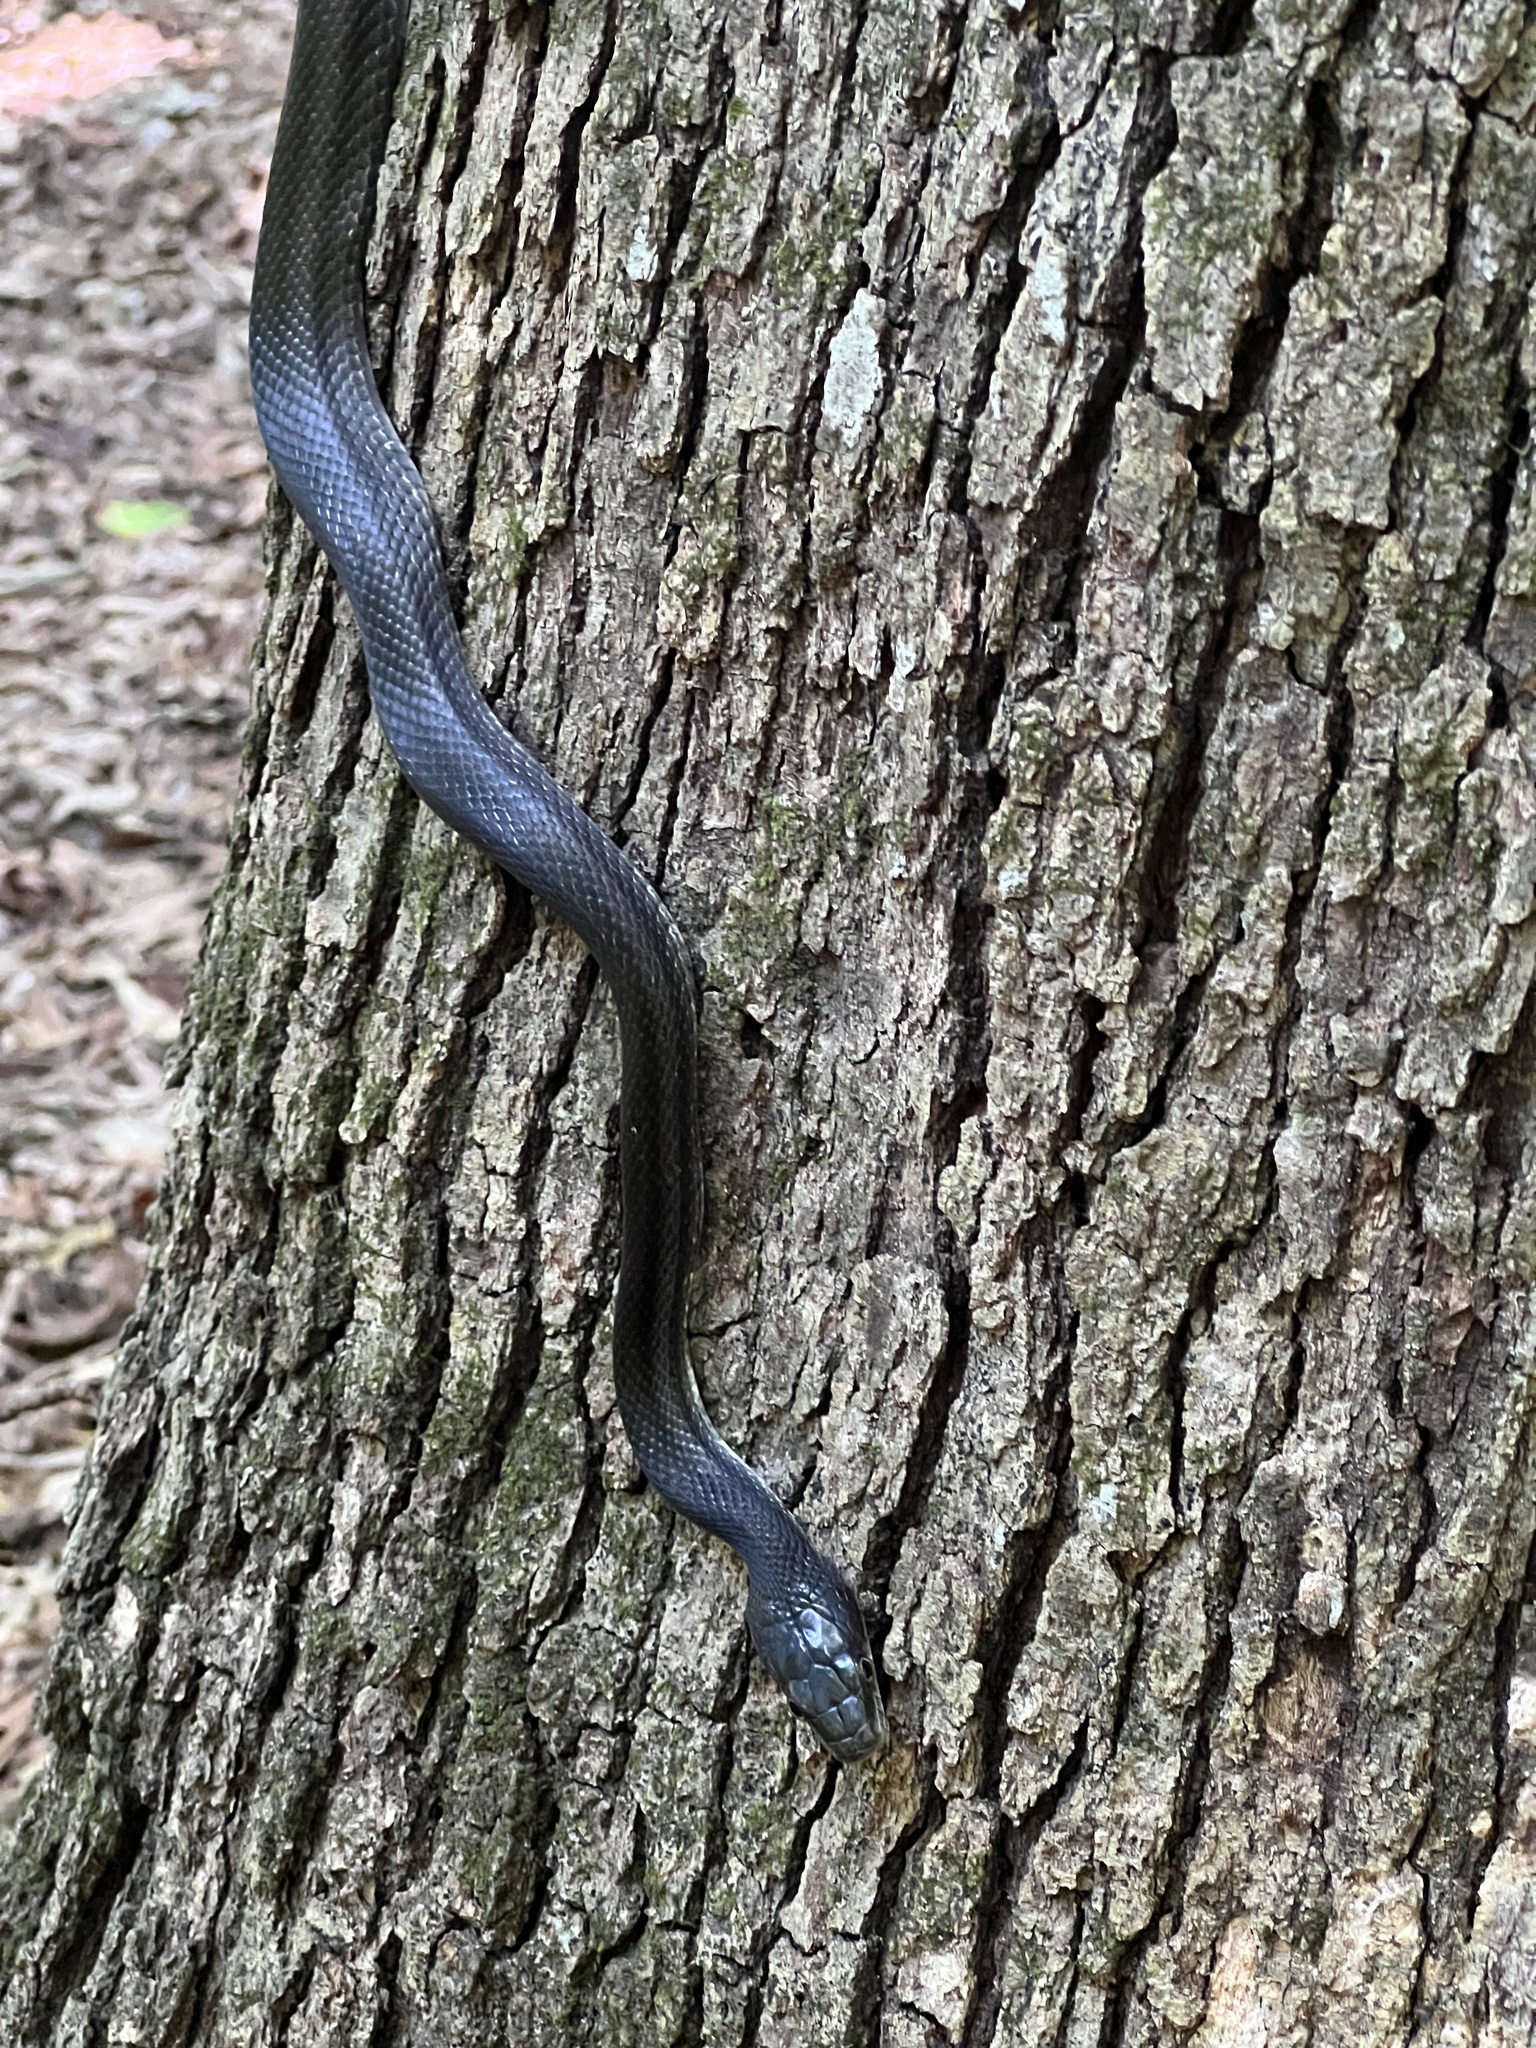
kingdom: Animalia
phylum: Chordata
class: Squamata
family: Colubridae
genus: Pantherophis
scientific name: Pantherophis alleghaniensis
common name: Eastern rat snake
